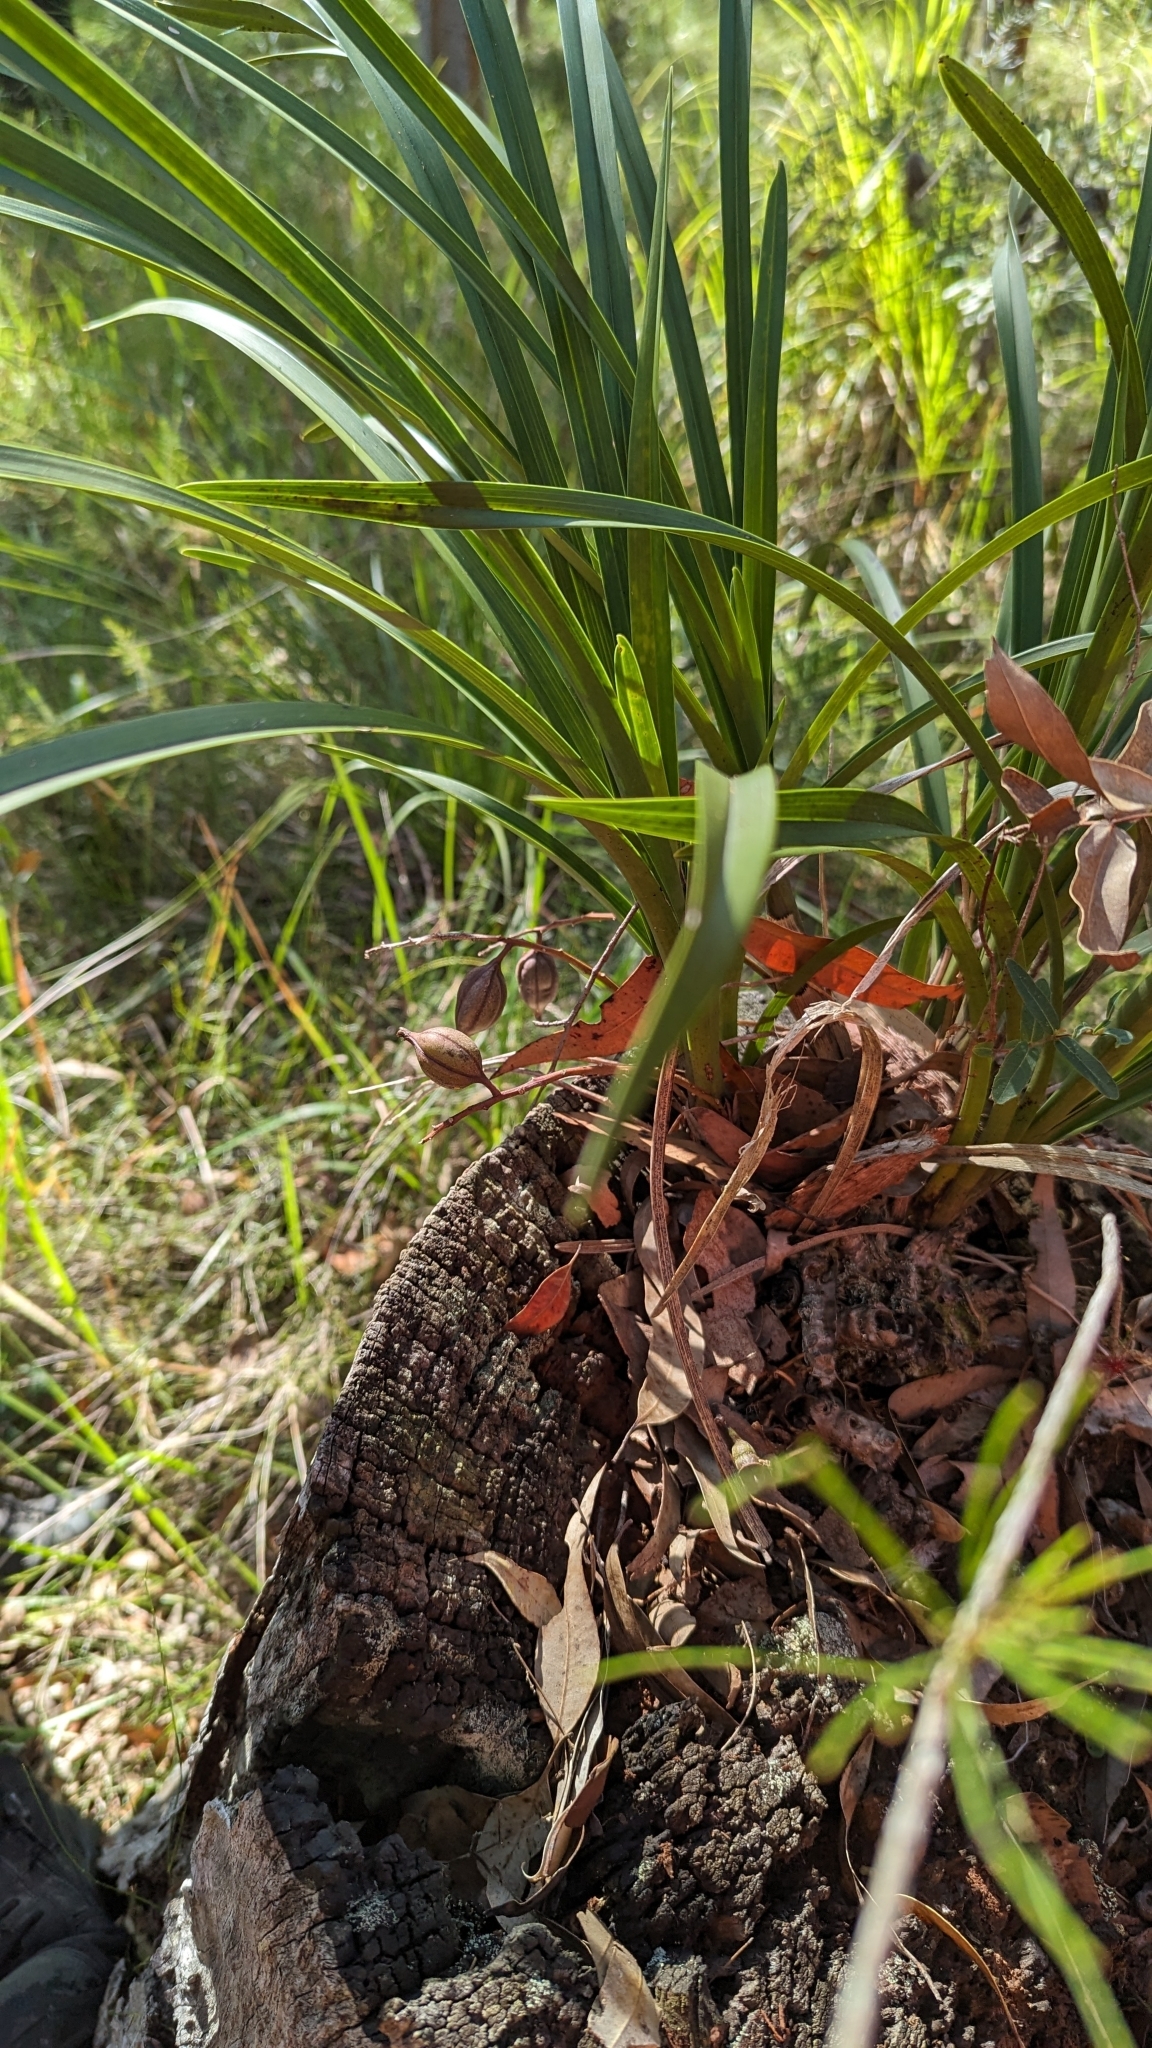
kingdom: Plantae
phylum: Tracheophyta
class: Liliopsida
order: Asparagales
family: Orchidaceae
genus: Cymbidium
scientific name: Cymbidium suave
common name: Snake orchid
